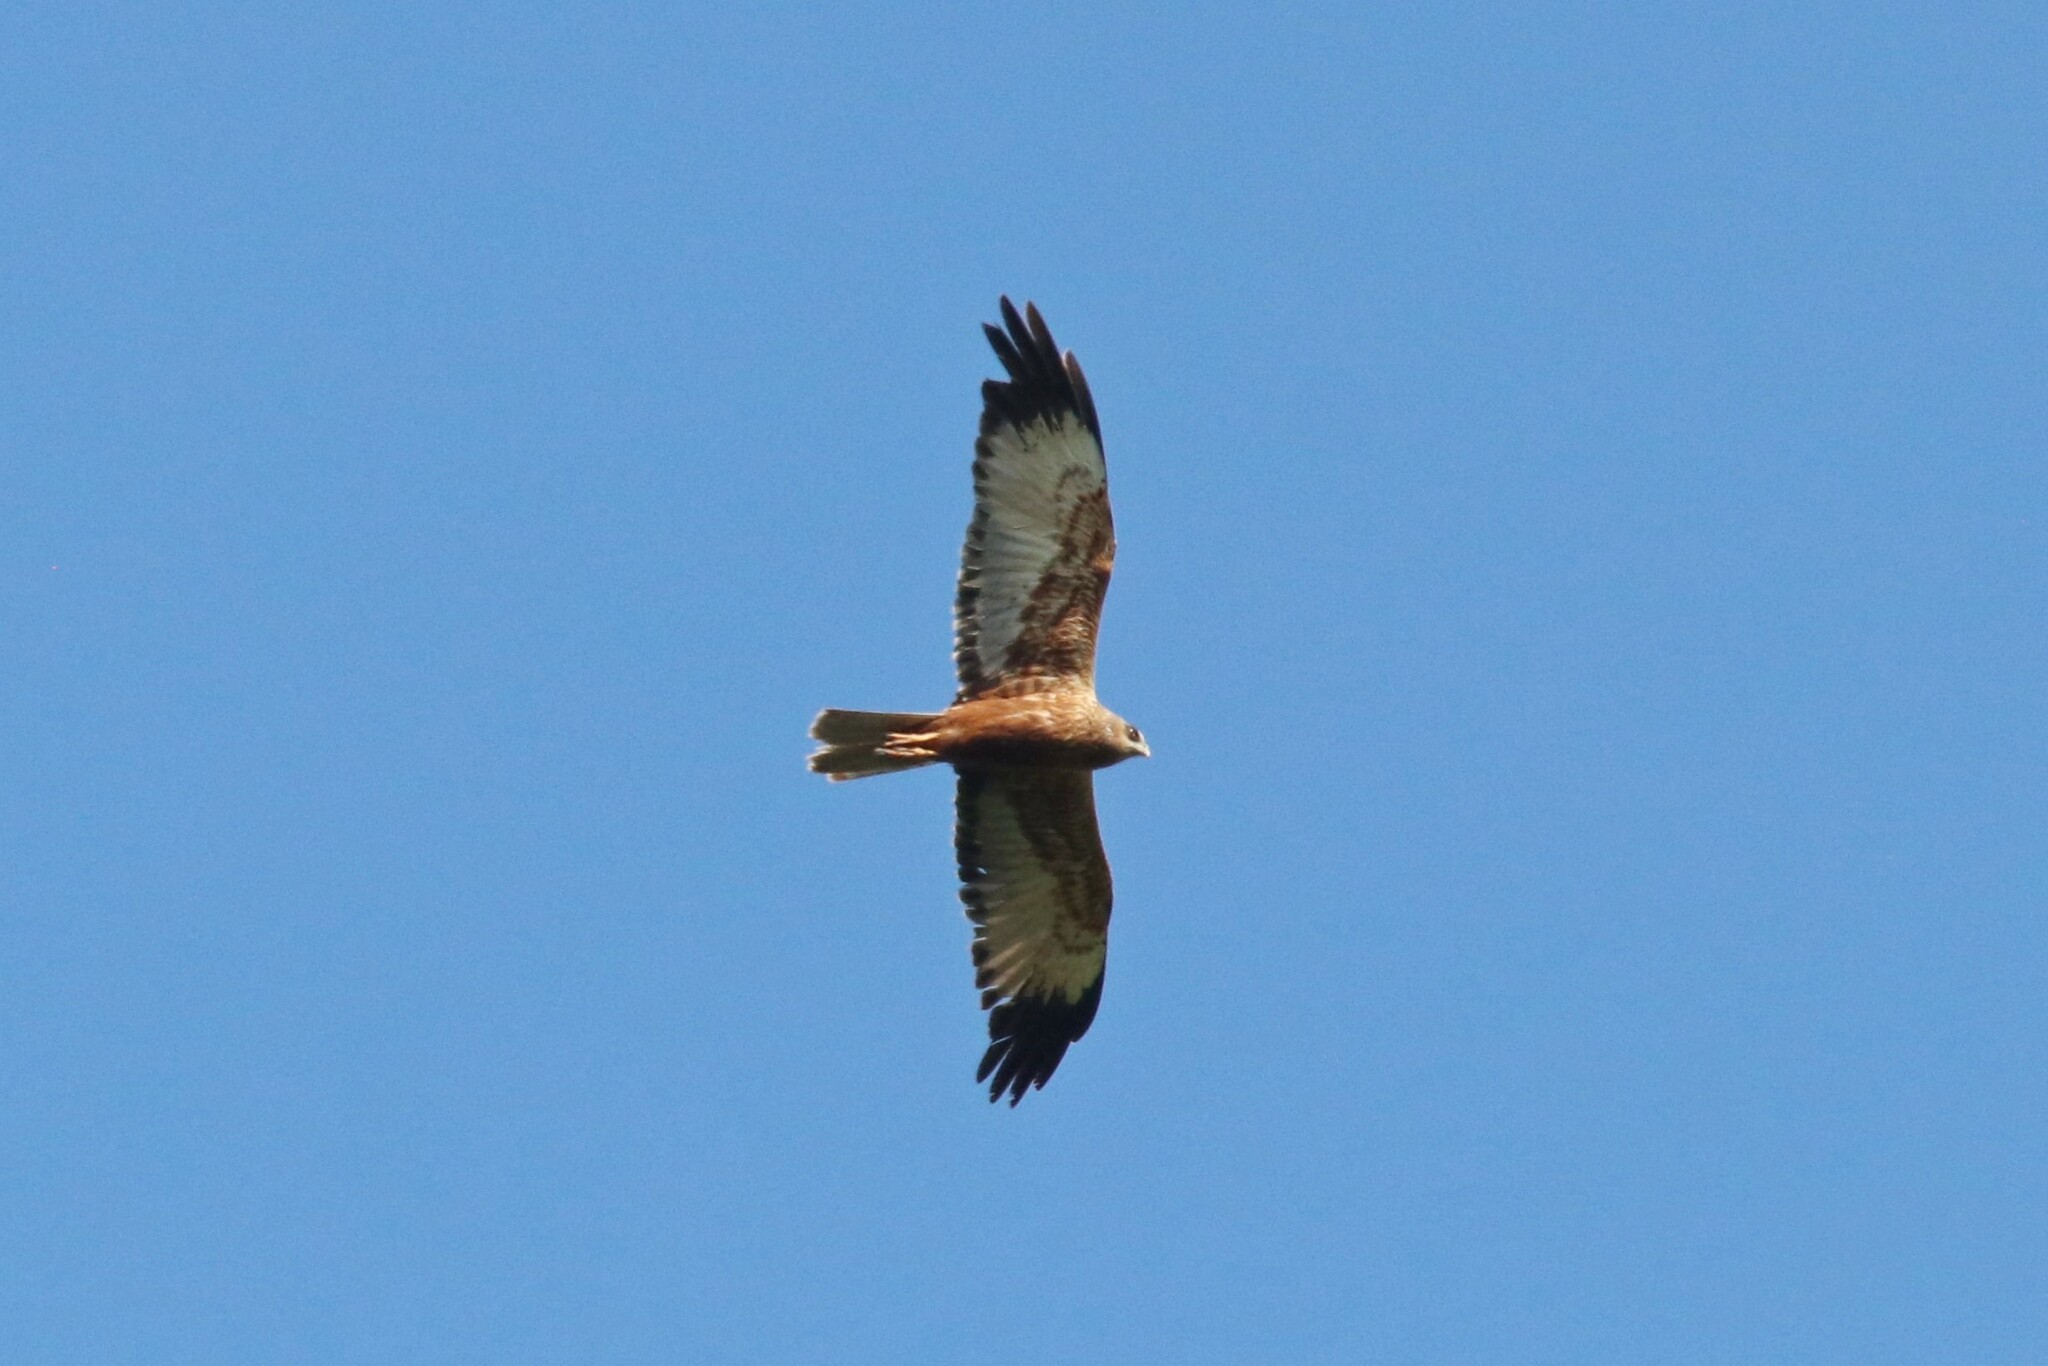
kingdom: Animalia
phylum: Chordata
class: Aves
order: Accipitriformes
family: Accipitridae
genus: Circus
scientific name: Circus aeruginosus
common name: Western marsh harrier
